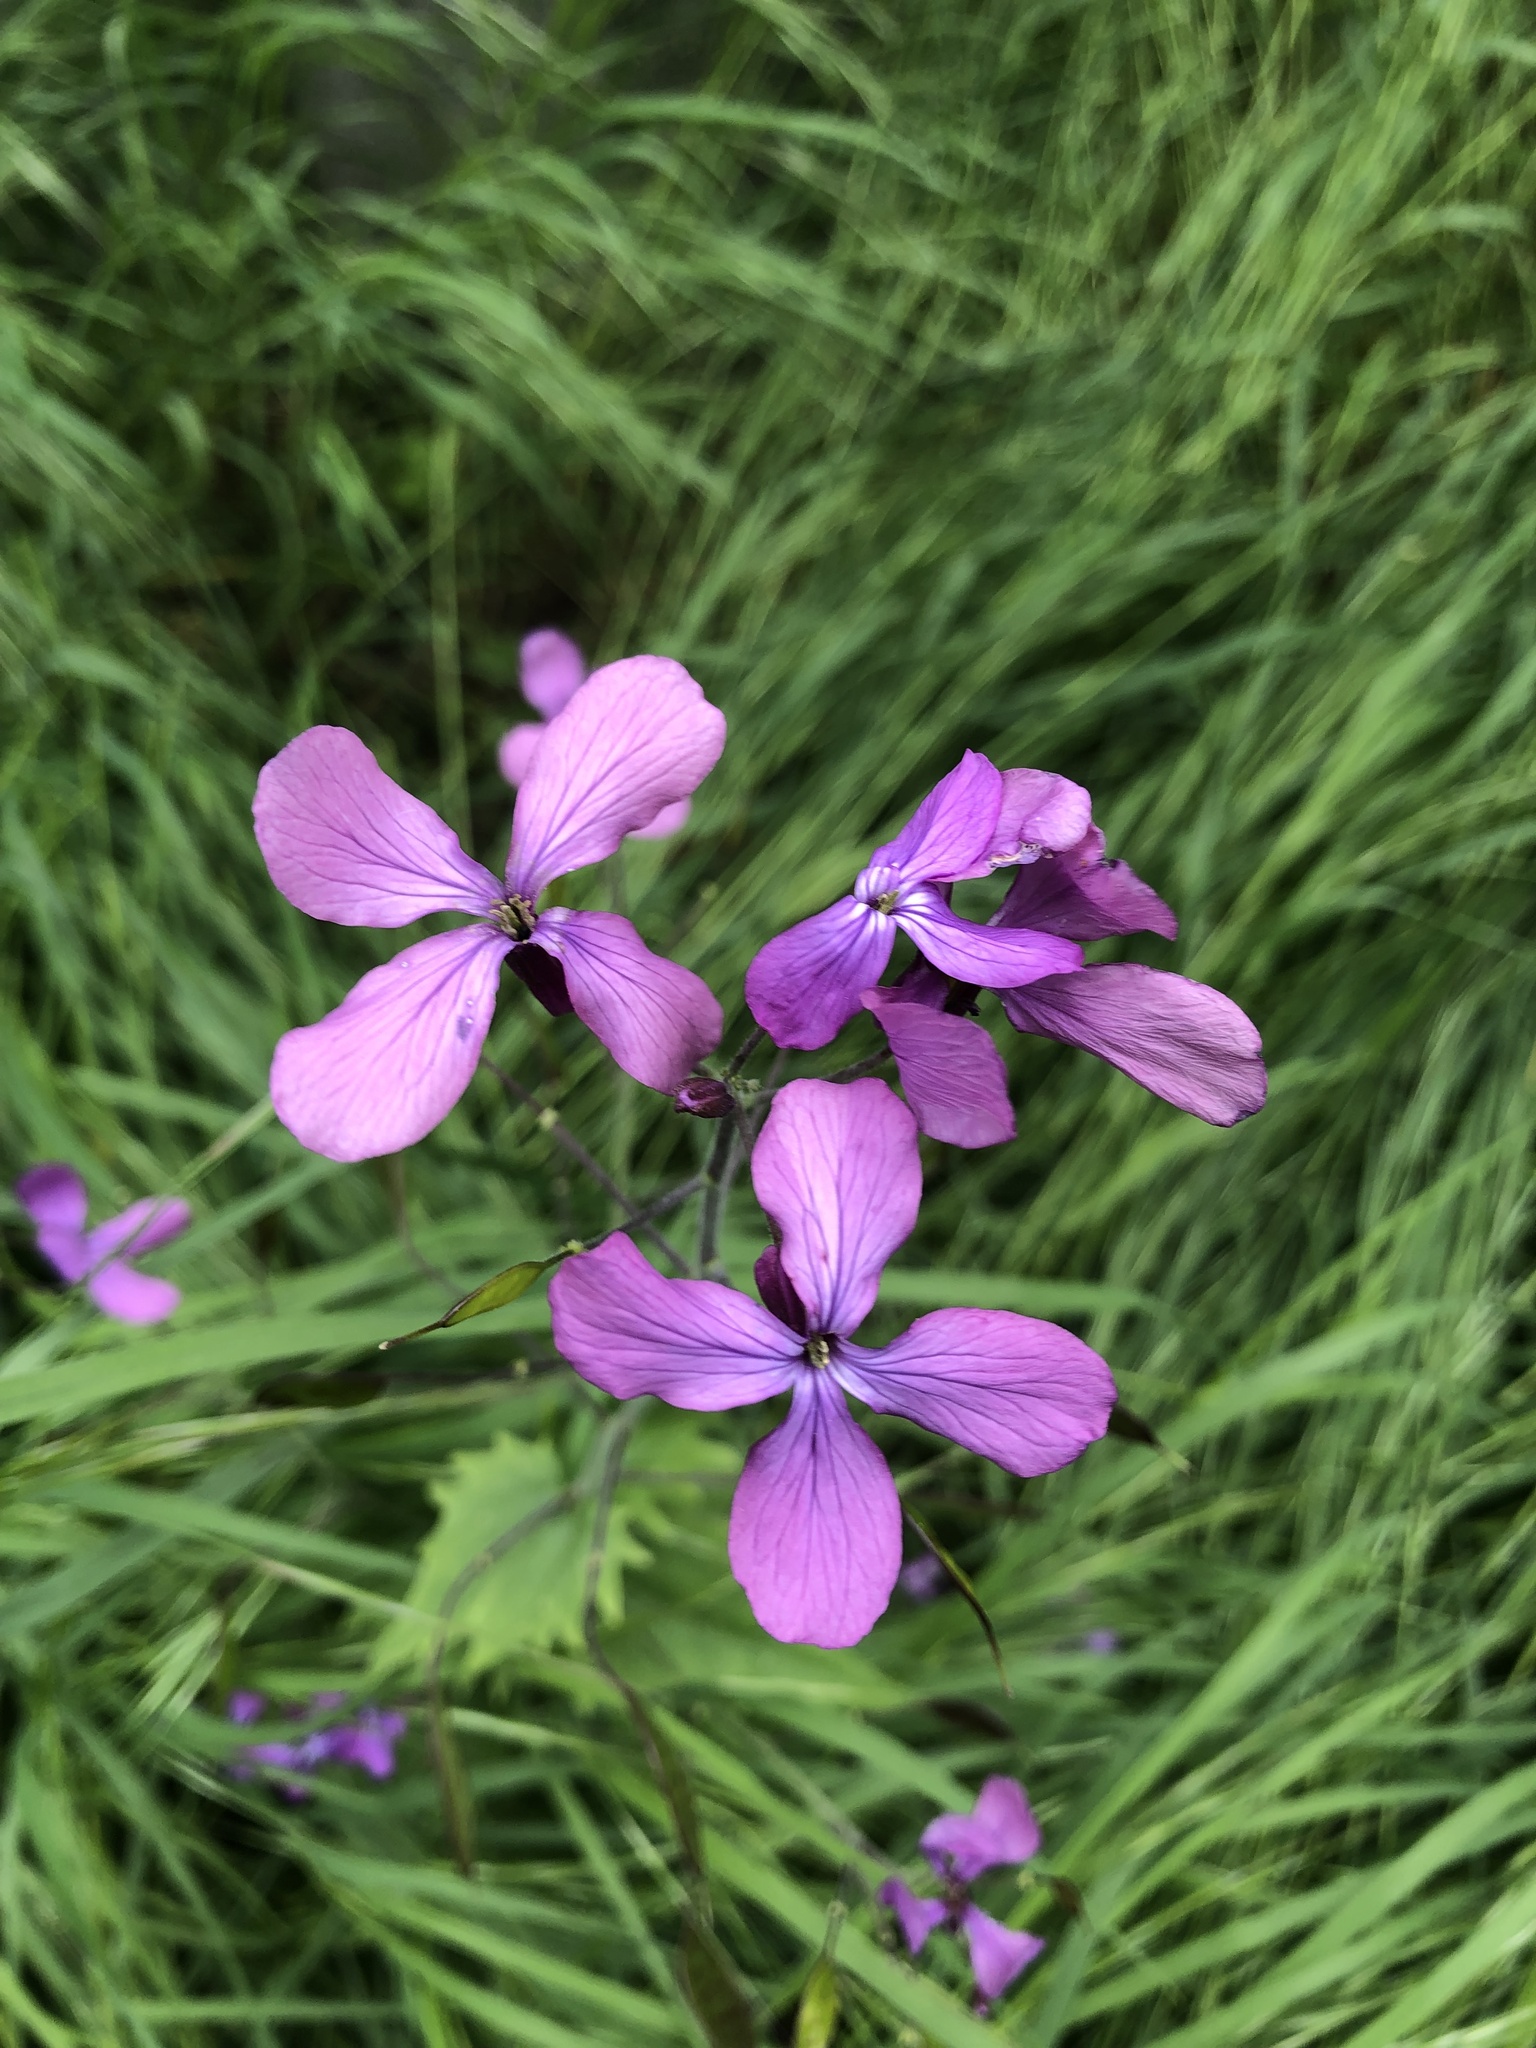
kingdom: Plantae
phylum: Tracheophyta
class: Magnoliopsida
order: Brassicales
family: Brassicaceae
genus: Lunaria
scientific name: Lunaria annua
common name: Honesty
